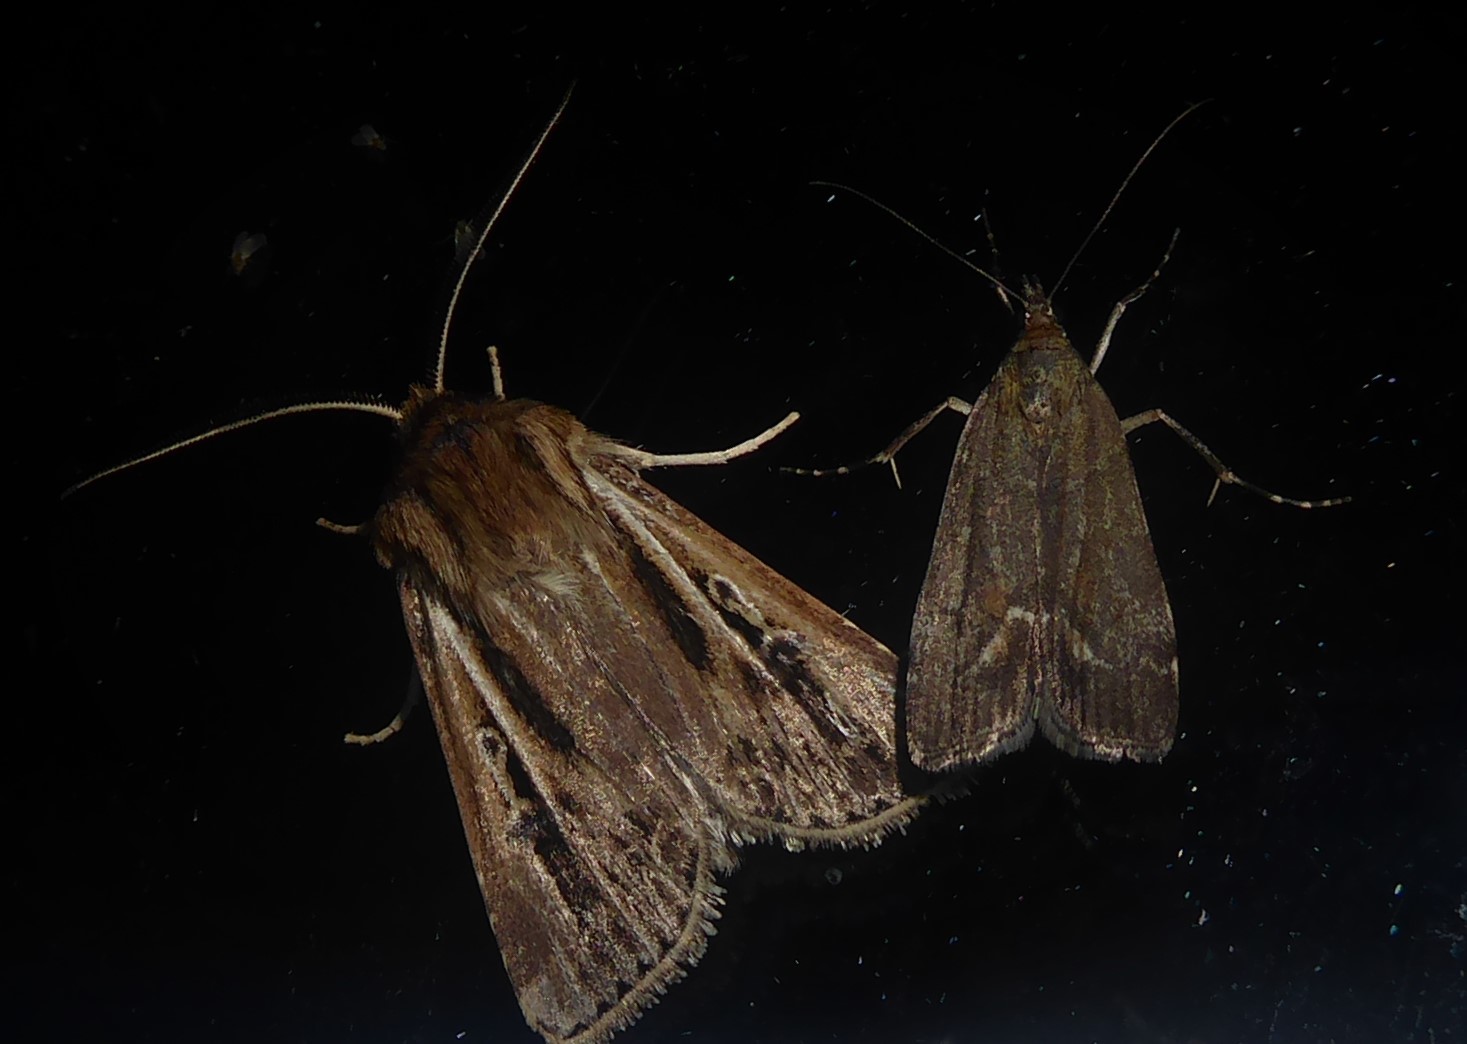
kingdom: Animalia
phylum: Arthropoda
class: Insecta
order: Lepidoptera
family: Noctuidae
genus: Agrotis
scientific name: Agrotis innominata
